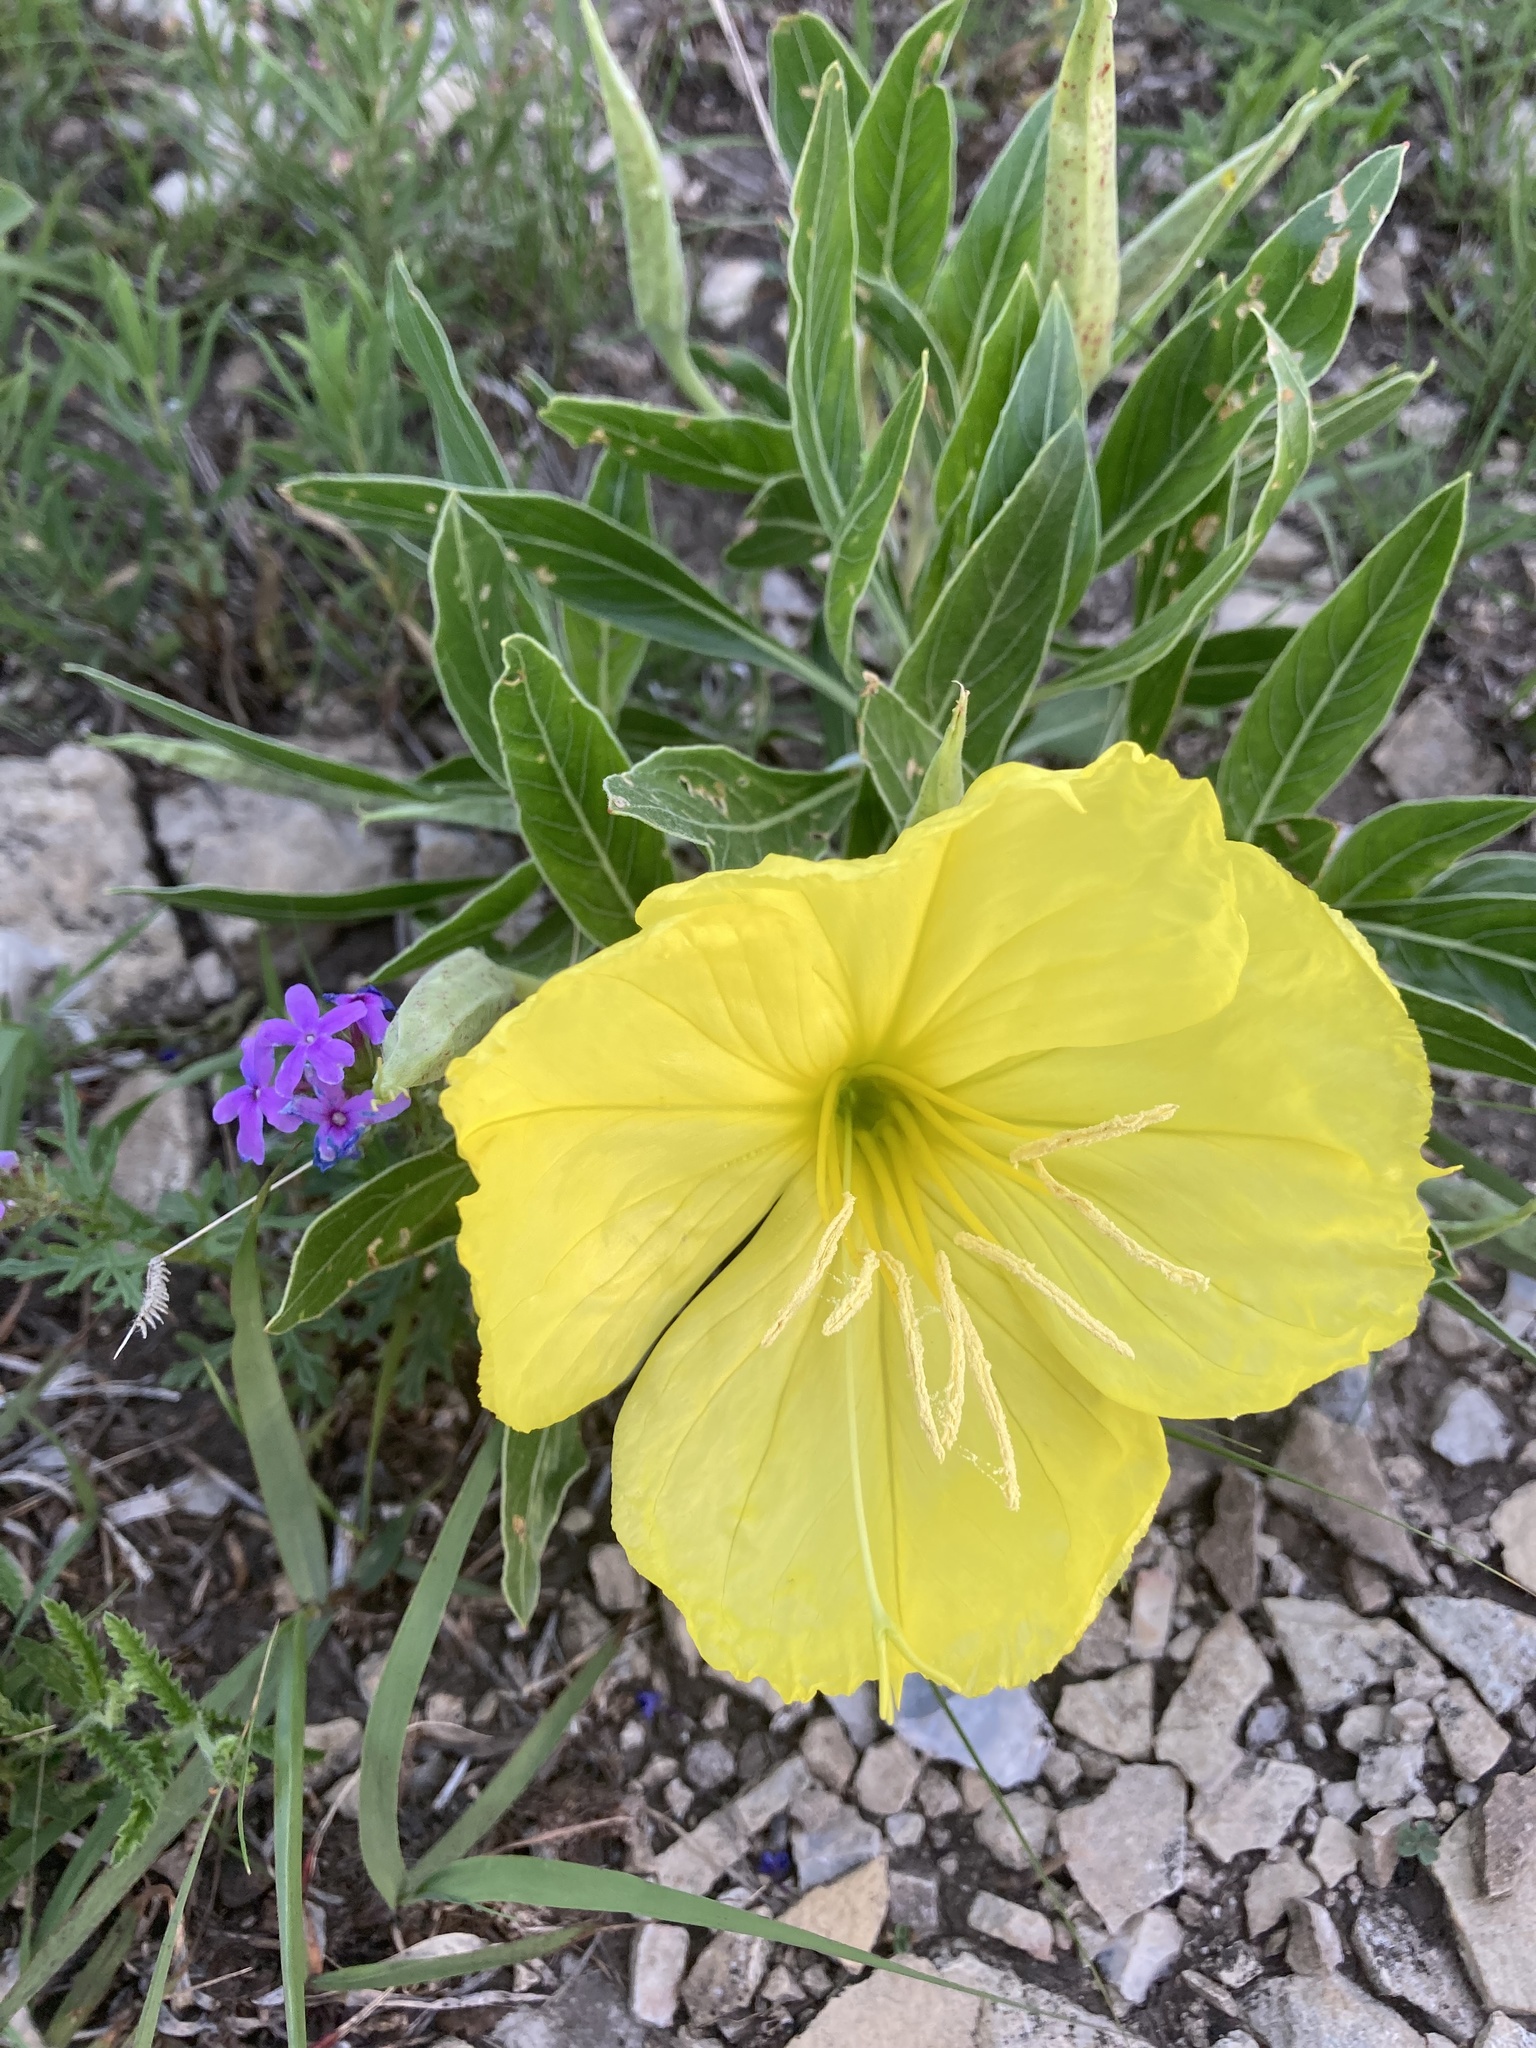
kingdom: Plantae
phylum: Tracheophyta
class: Magnoliopsida
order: Myrtales
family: Onagraceae
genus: Oenothera
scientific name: Oenothera macrocarpa
